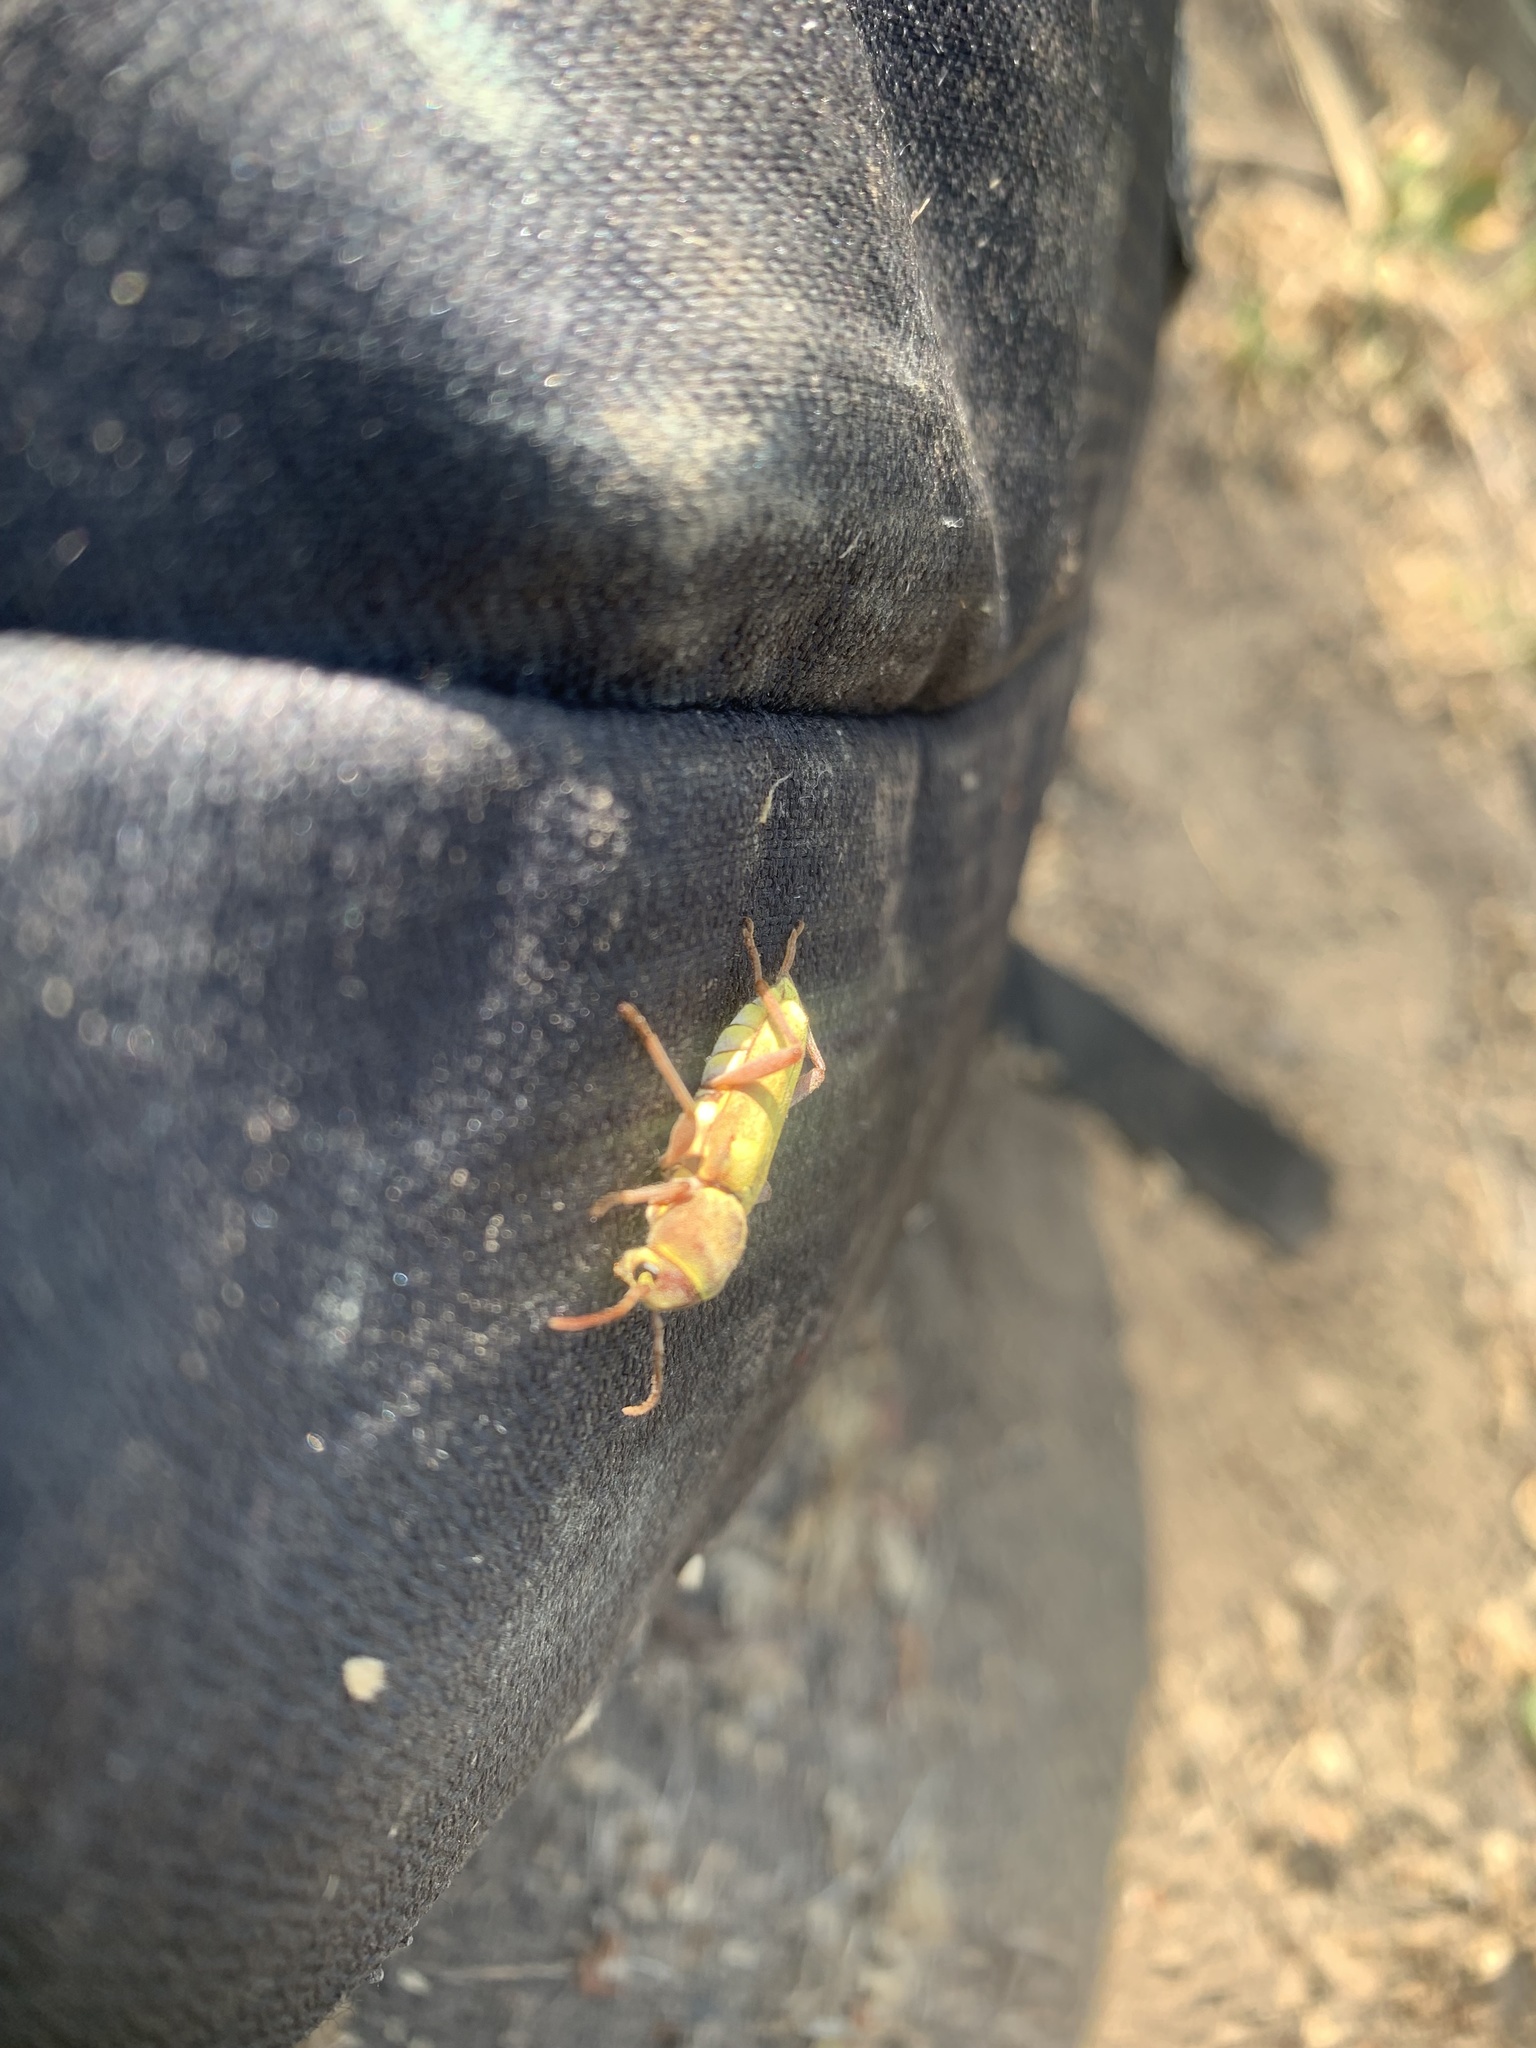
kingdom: Animalia
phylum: Arthropoda
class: Insecta
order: Coleoptera
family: Cerambycidae
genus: Xylotrechus
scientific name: Xylotrechus insignis
